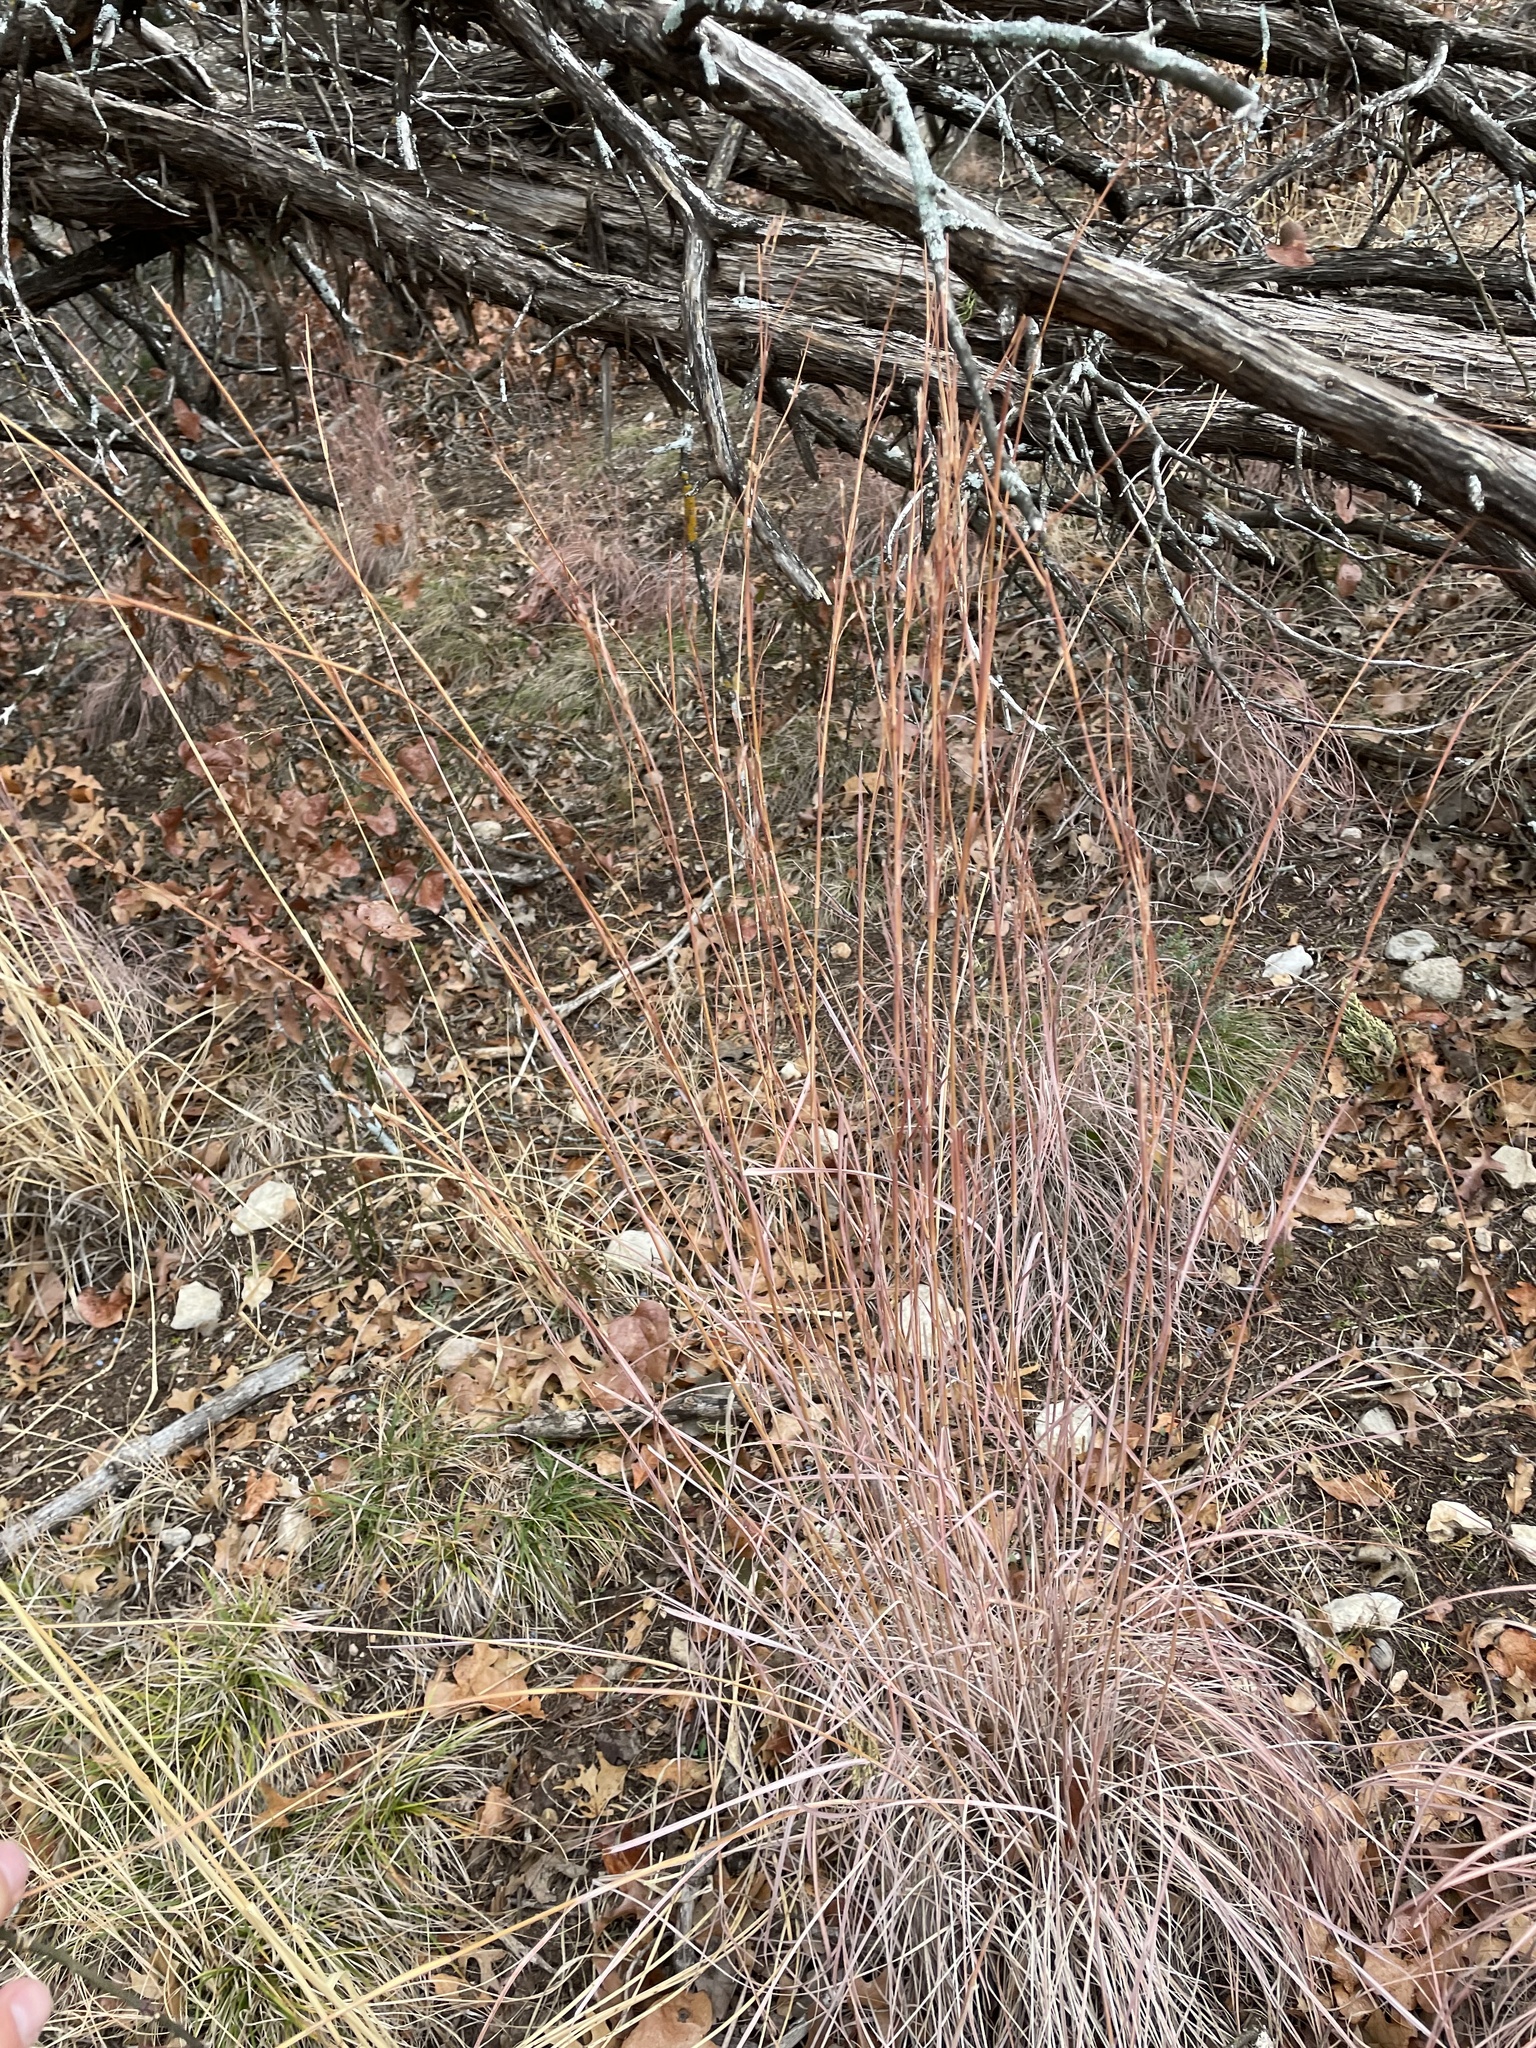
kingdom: Plantae
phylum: Tracheophyta
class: Liliopsida
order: Poales
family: Poaceae
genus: Schizachyrium
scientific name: Schizachyrium scoparium
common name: Little bluestem
